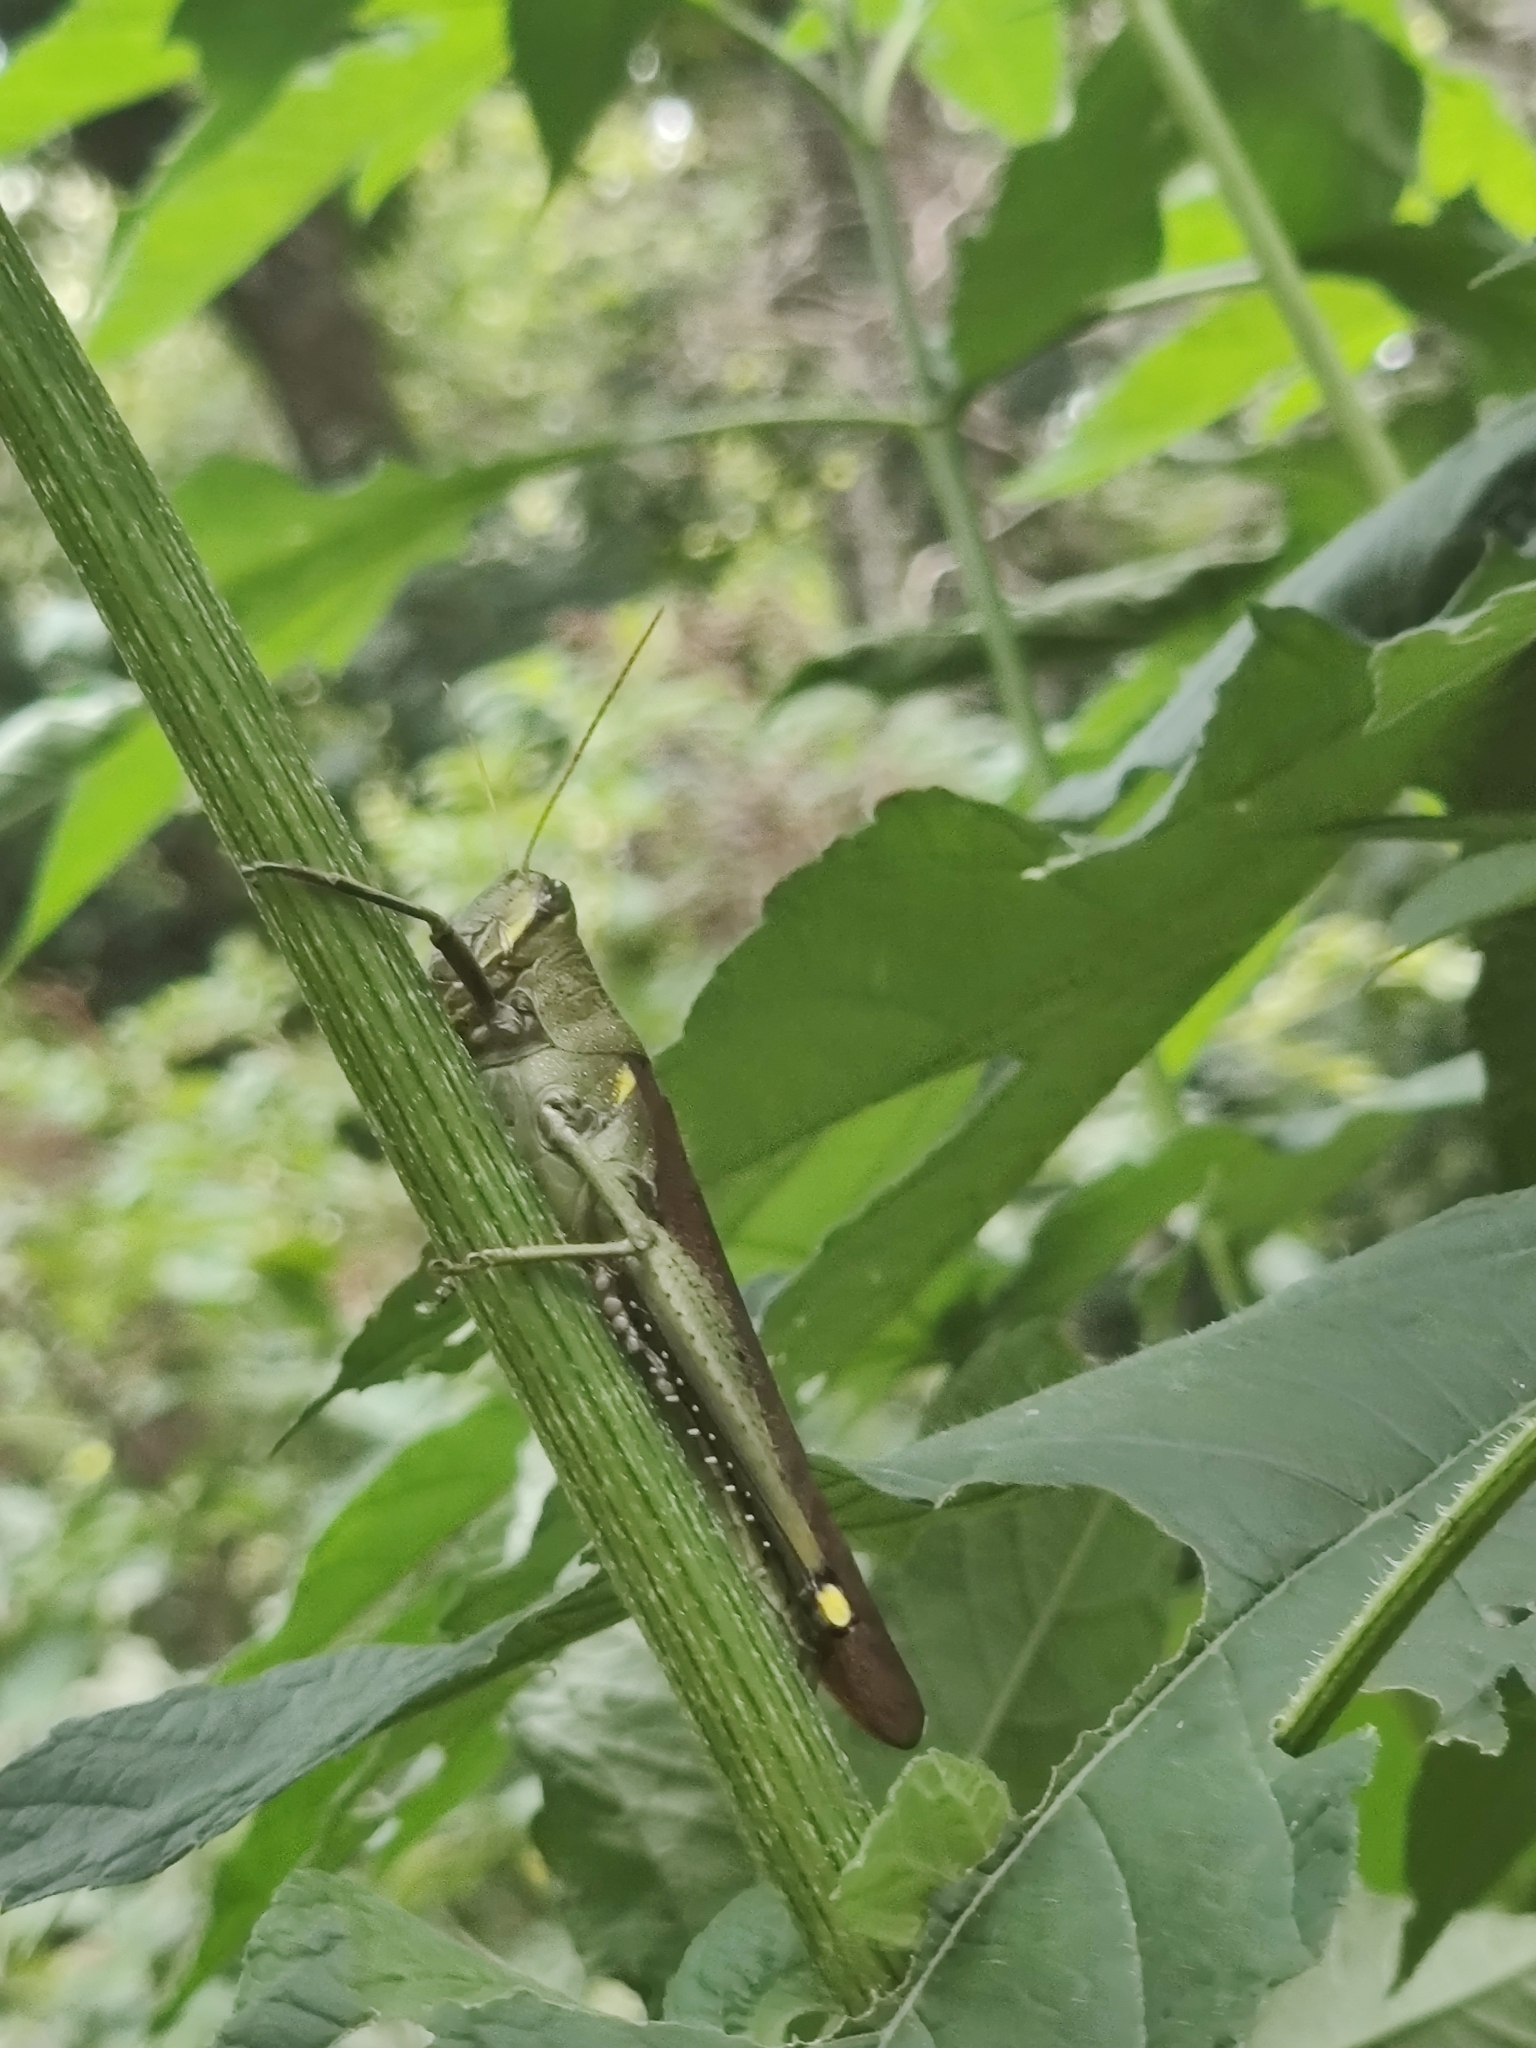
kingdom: Animalia
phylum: Arthropoda
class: Insecta
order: Orthoptera
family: Acrididae
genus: Schistocerca
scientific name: Schistocerca obscura
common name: Obscure bird grasshopper
